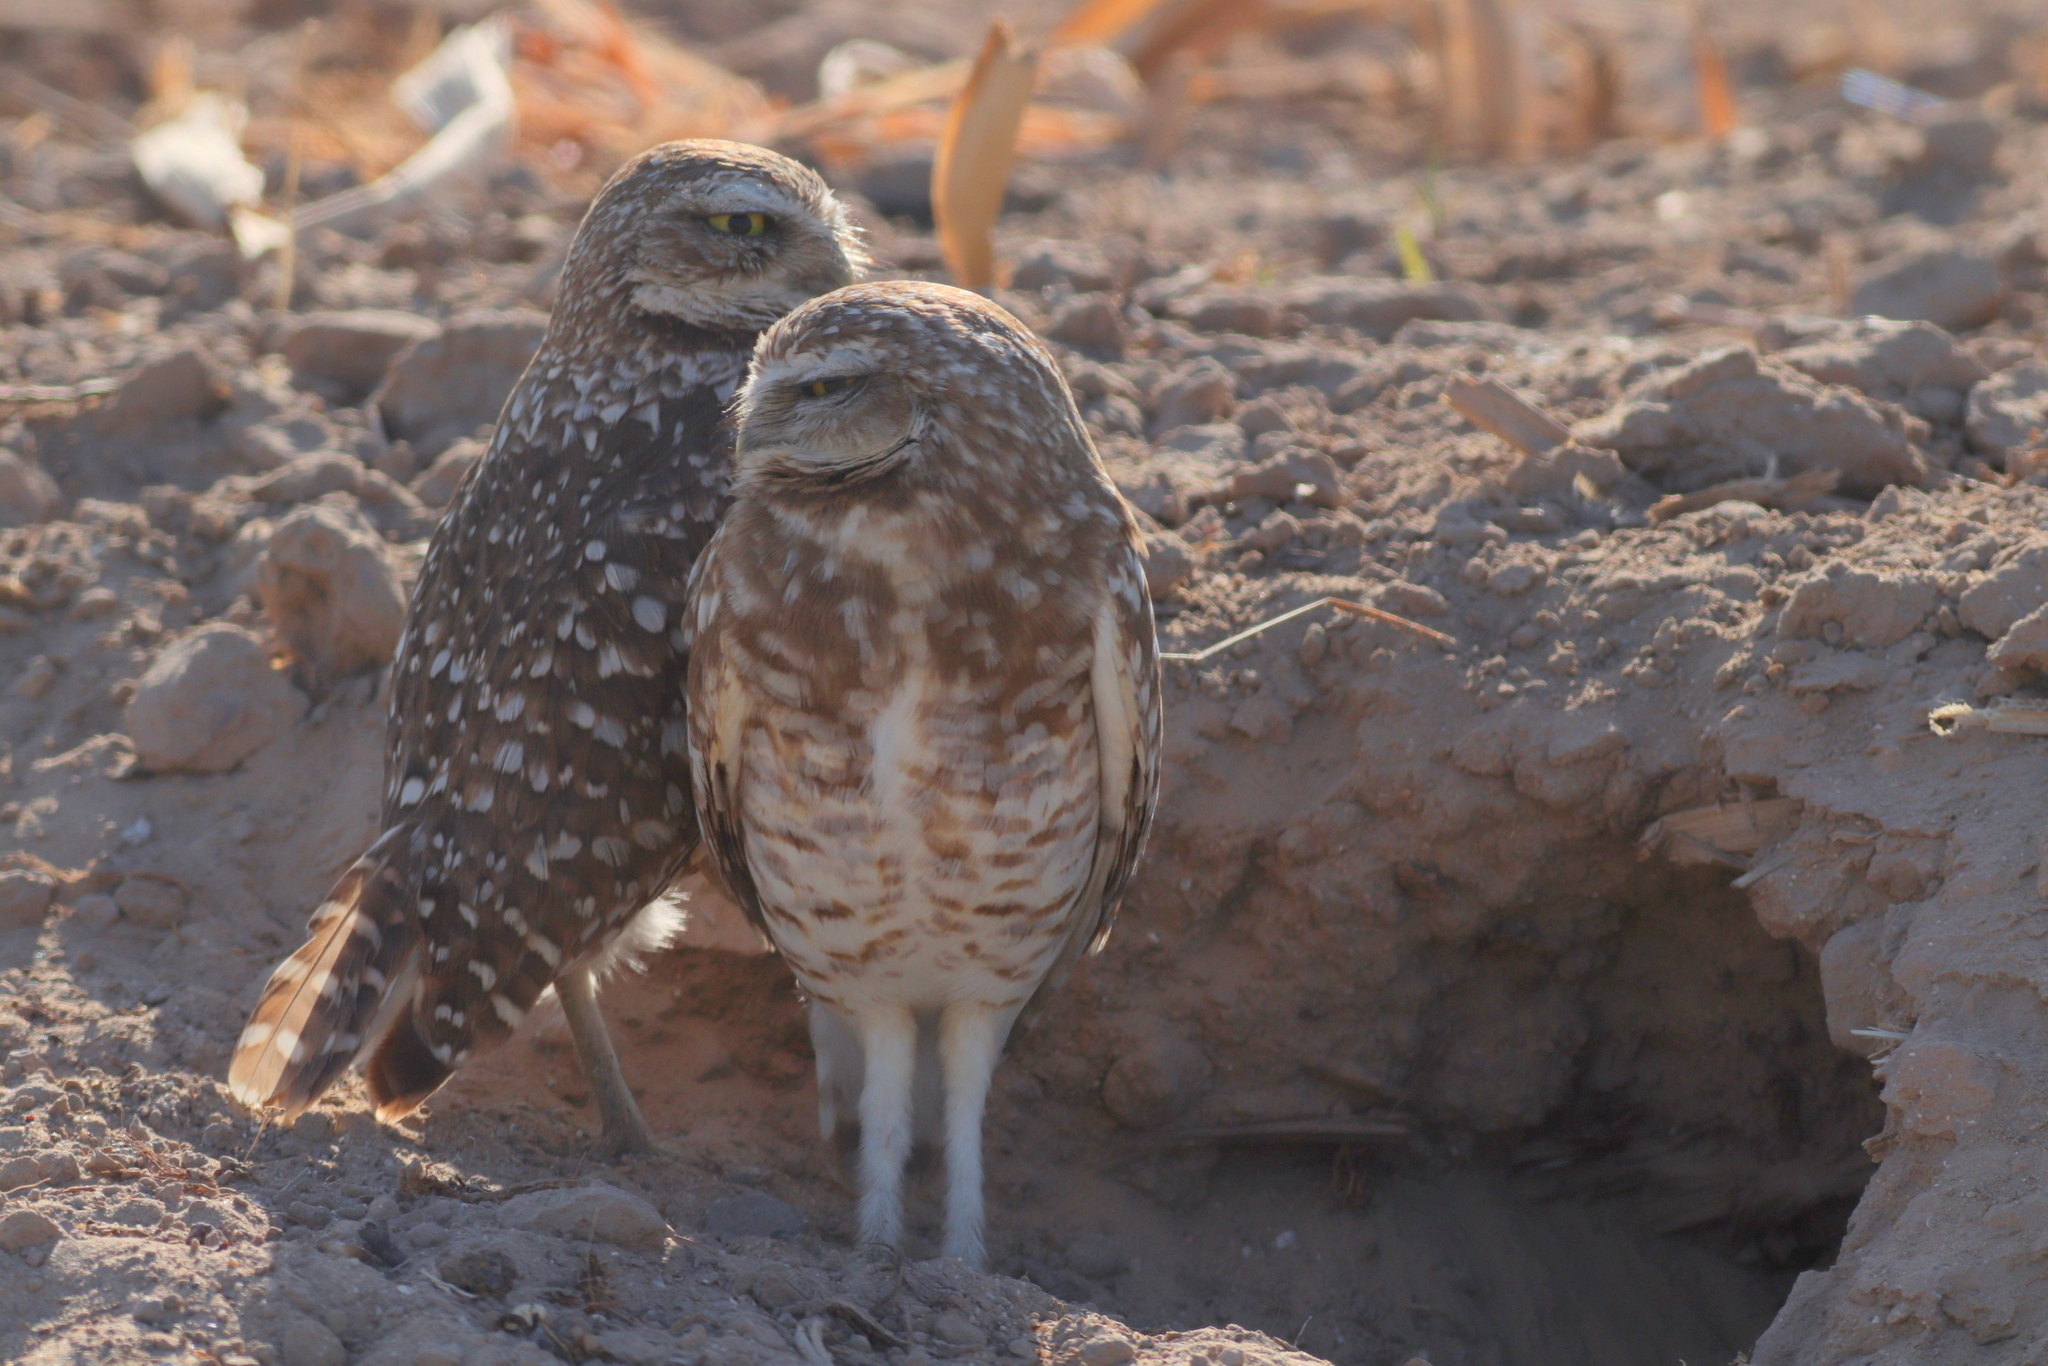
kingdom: Animalia
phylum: Chordata
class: Aves
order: Strigiformes
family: Strigidae
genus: Athene
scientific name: Athene cunicularia
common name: Burrowing owl
